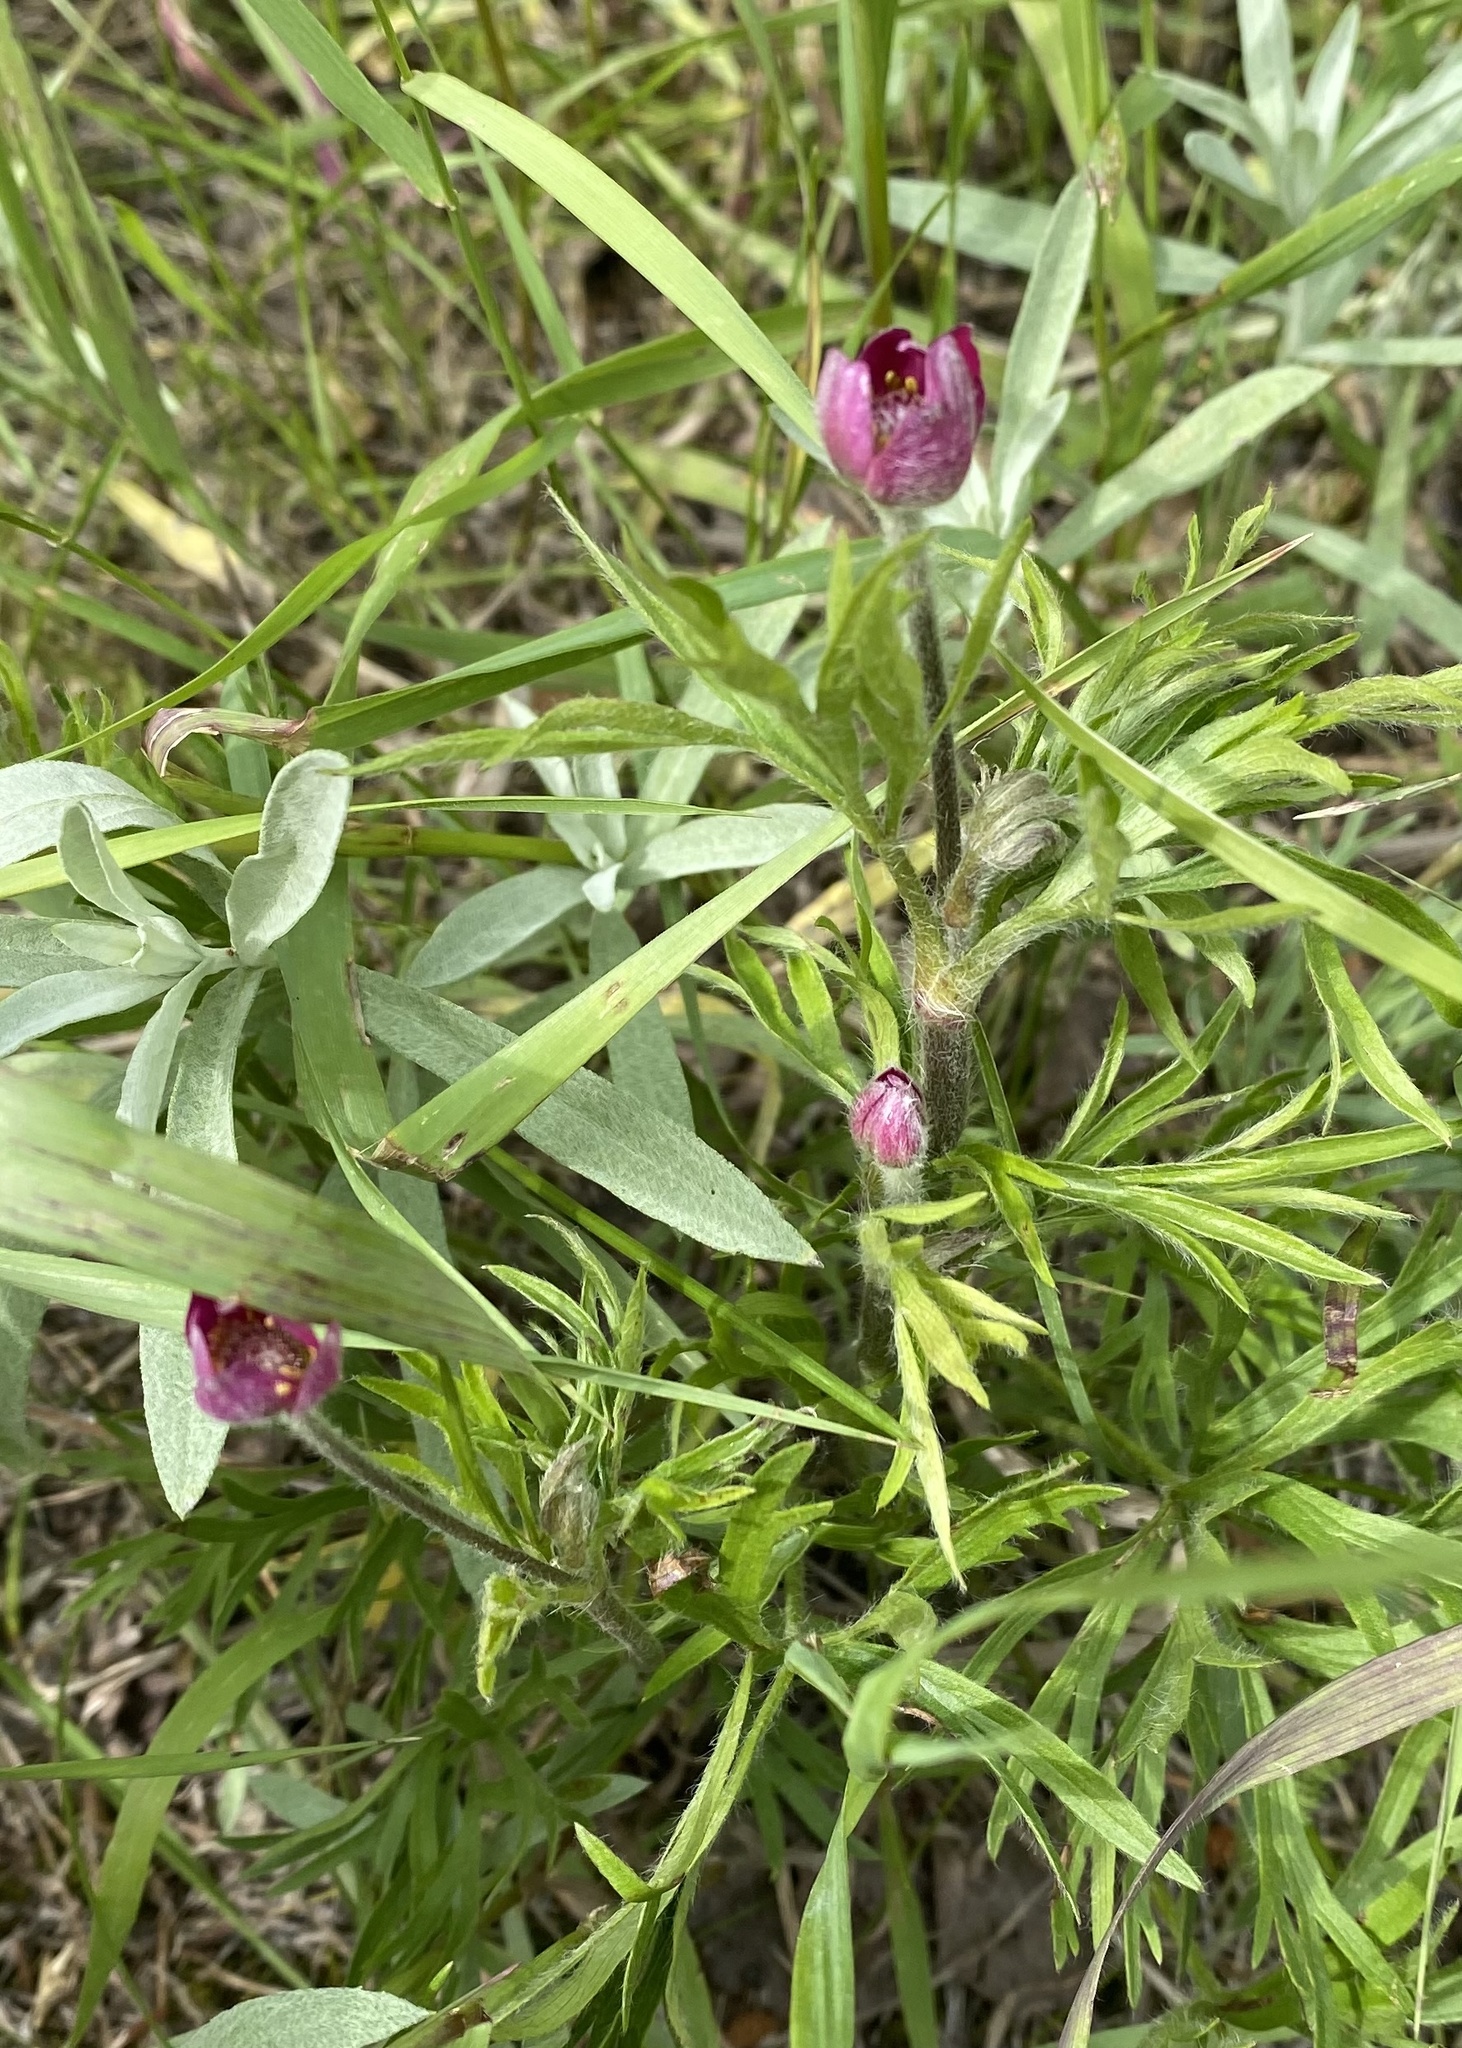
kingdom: Plantae
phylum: Tracheophyta
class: Magnoliopsida
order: Ranunculales
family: Ranunculaceae
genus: Anemone
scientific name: Anemone multifida
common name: Bird's-foot anemone
